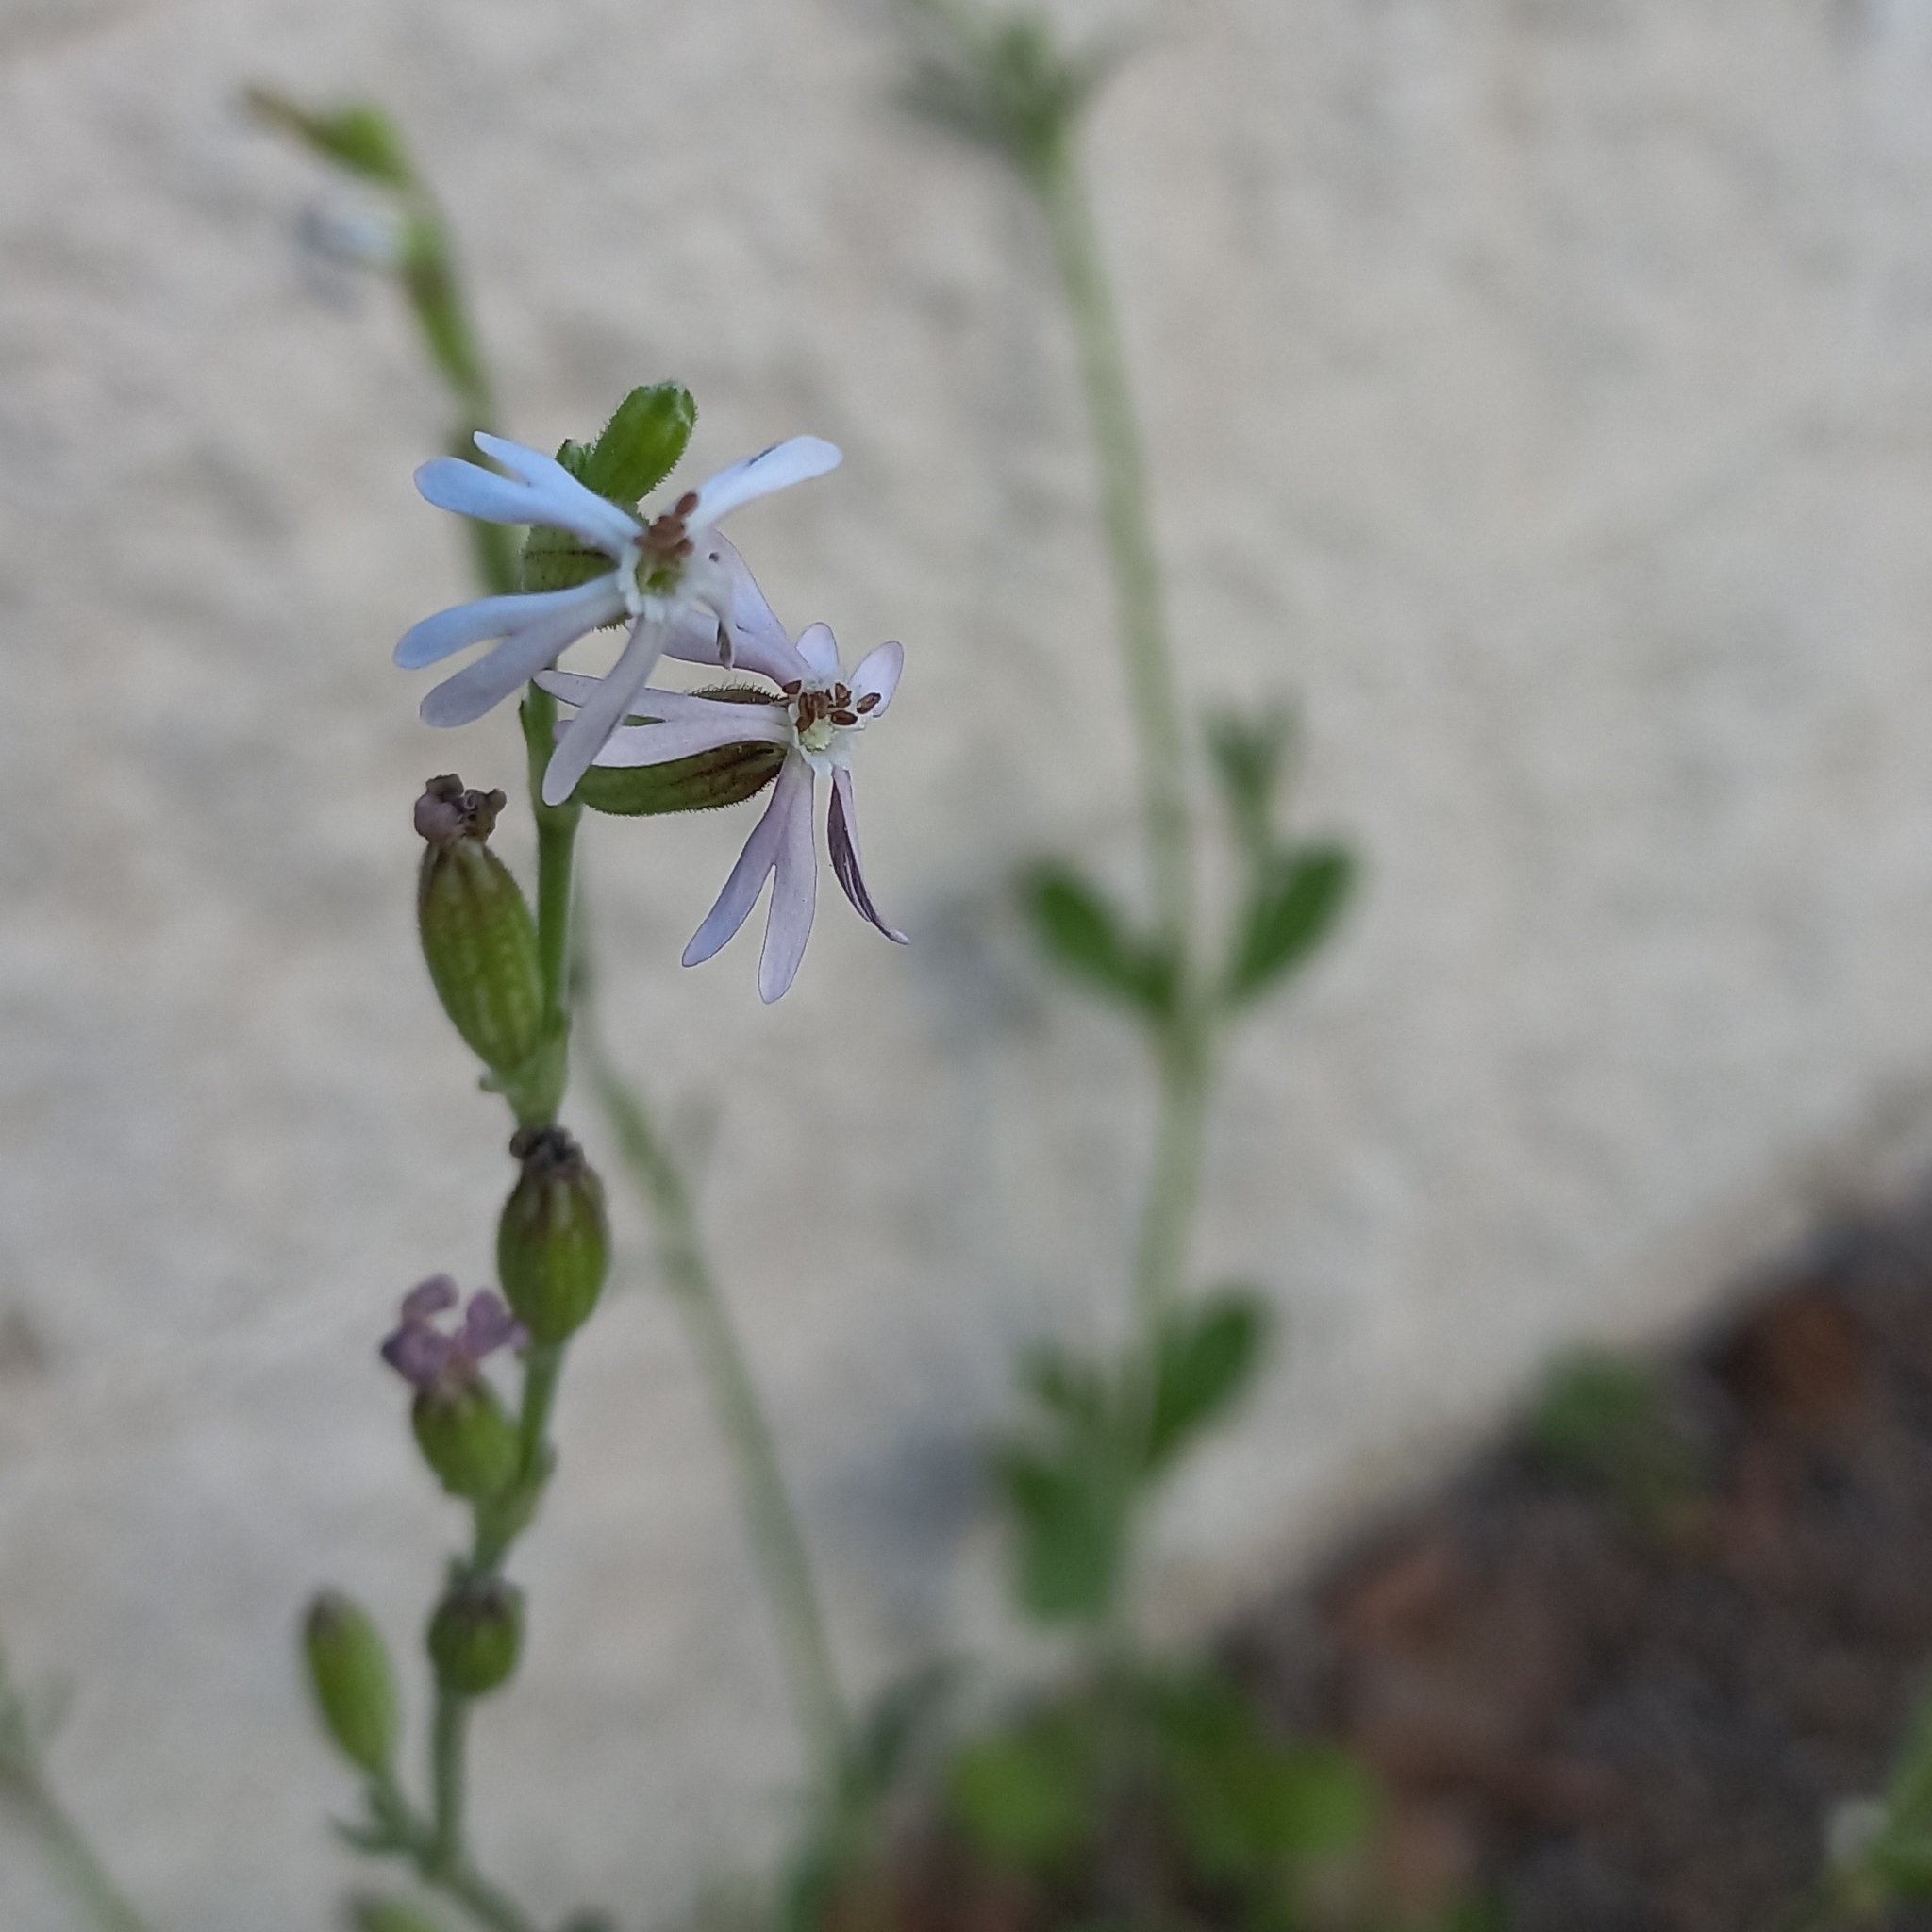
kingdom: Plantae
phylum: Tracheophyta
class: Magnoliopsida
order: Caryophyllales
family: Caryophyllaceae
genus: Silene
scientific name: Silene nocturna
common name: Mediterranean catchfly
